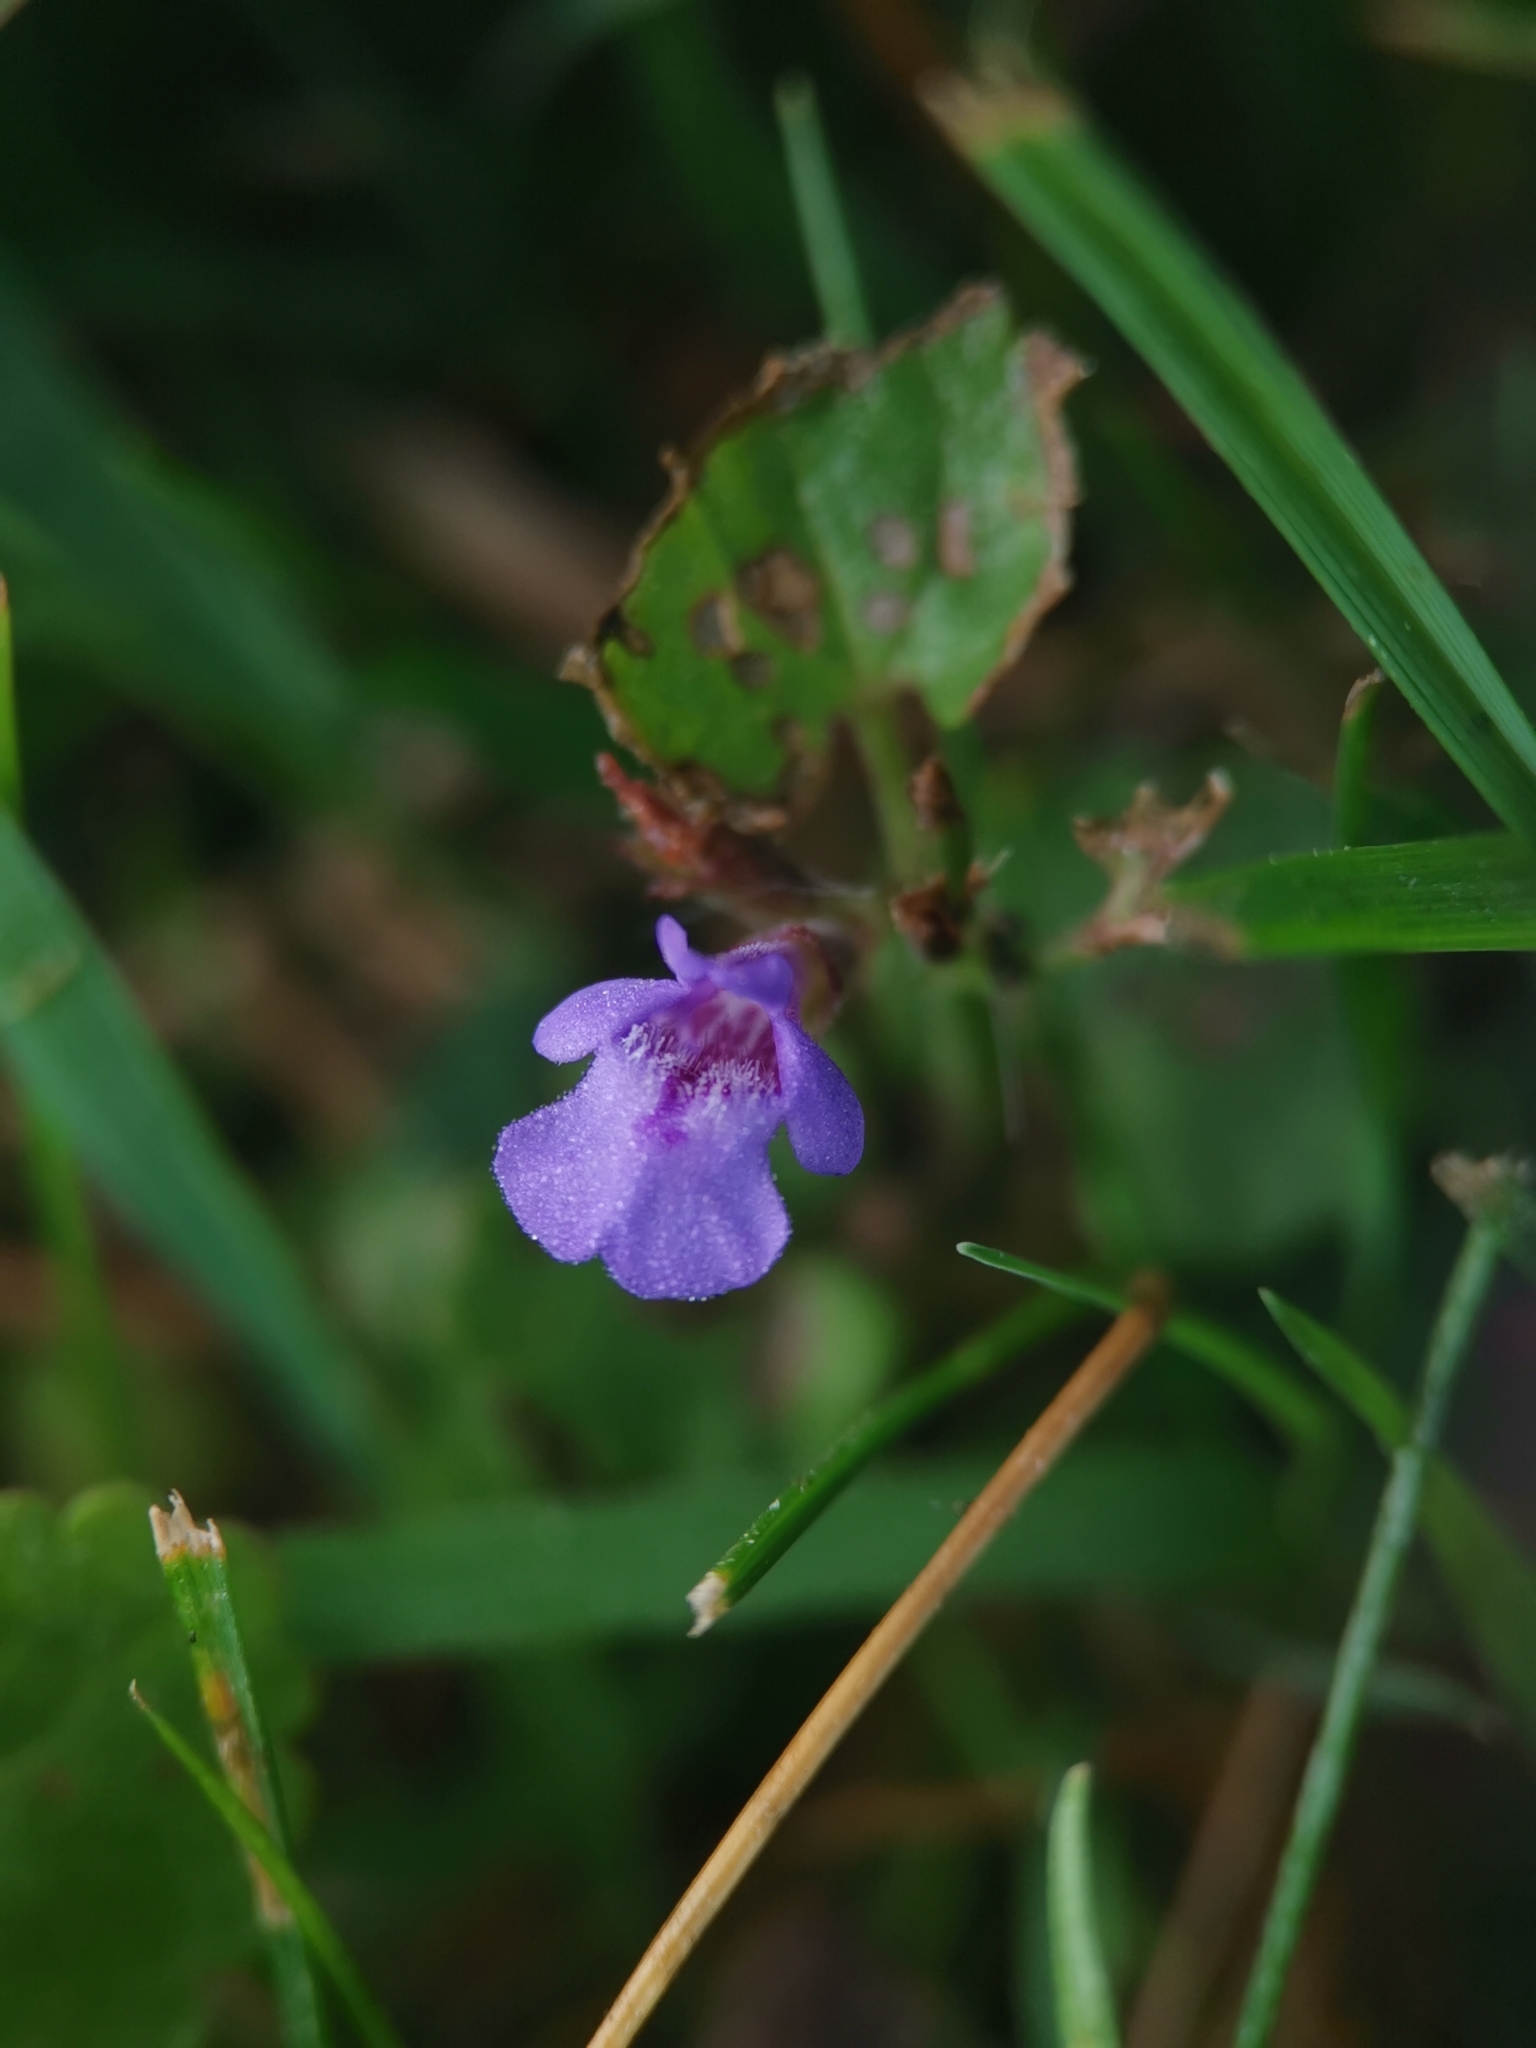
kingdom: Plantae
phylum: Tracheophyta
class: Magnoliopsida
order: Lamiales
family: Lamiaceae
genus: Glechoma
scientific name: Glechoma hederacea
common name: Ground ivy
